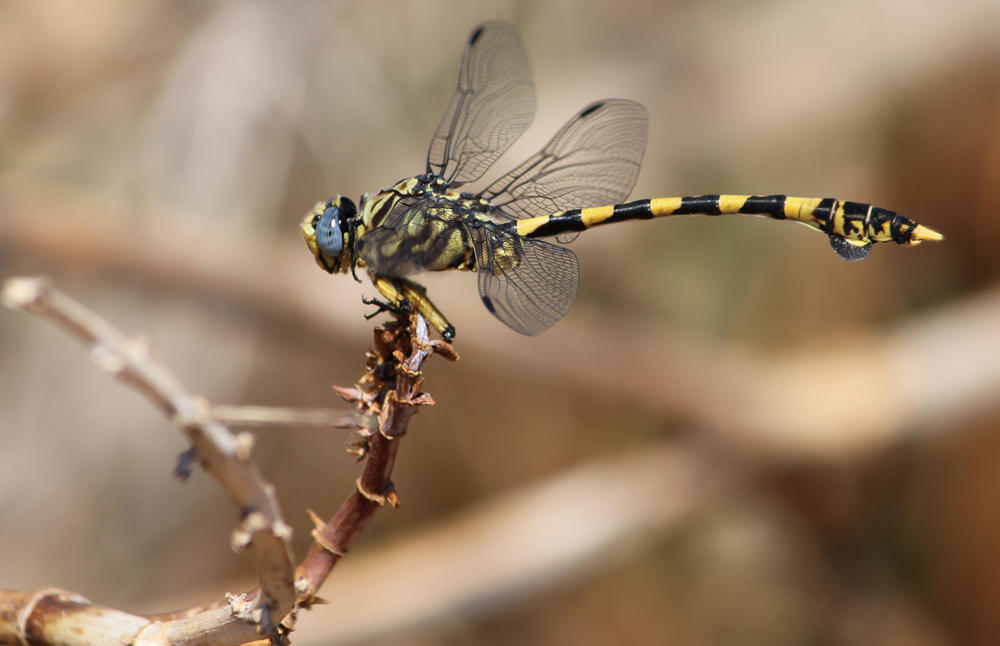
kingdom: Animalia
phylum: Arthropoda
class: Insecta
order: Odonata
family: Gomphidae
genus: Ictinogomphus
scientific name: Ictinogomphus ferox
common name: Common tiger
